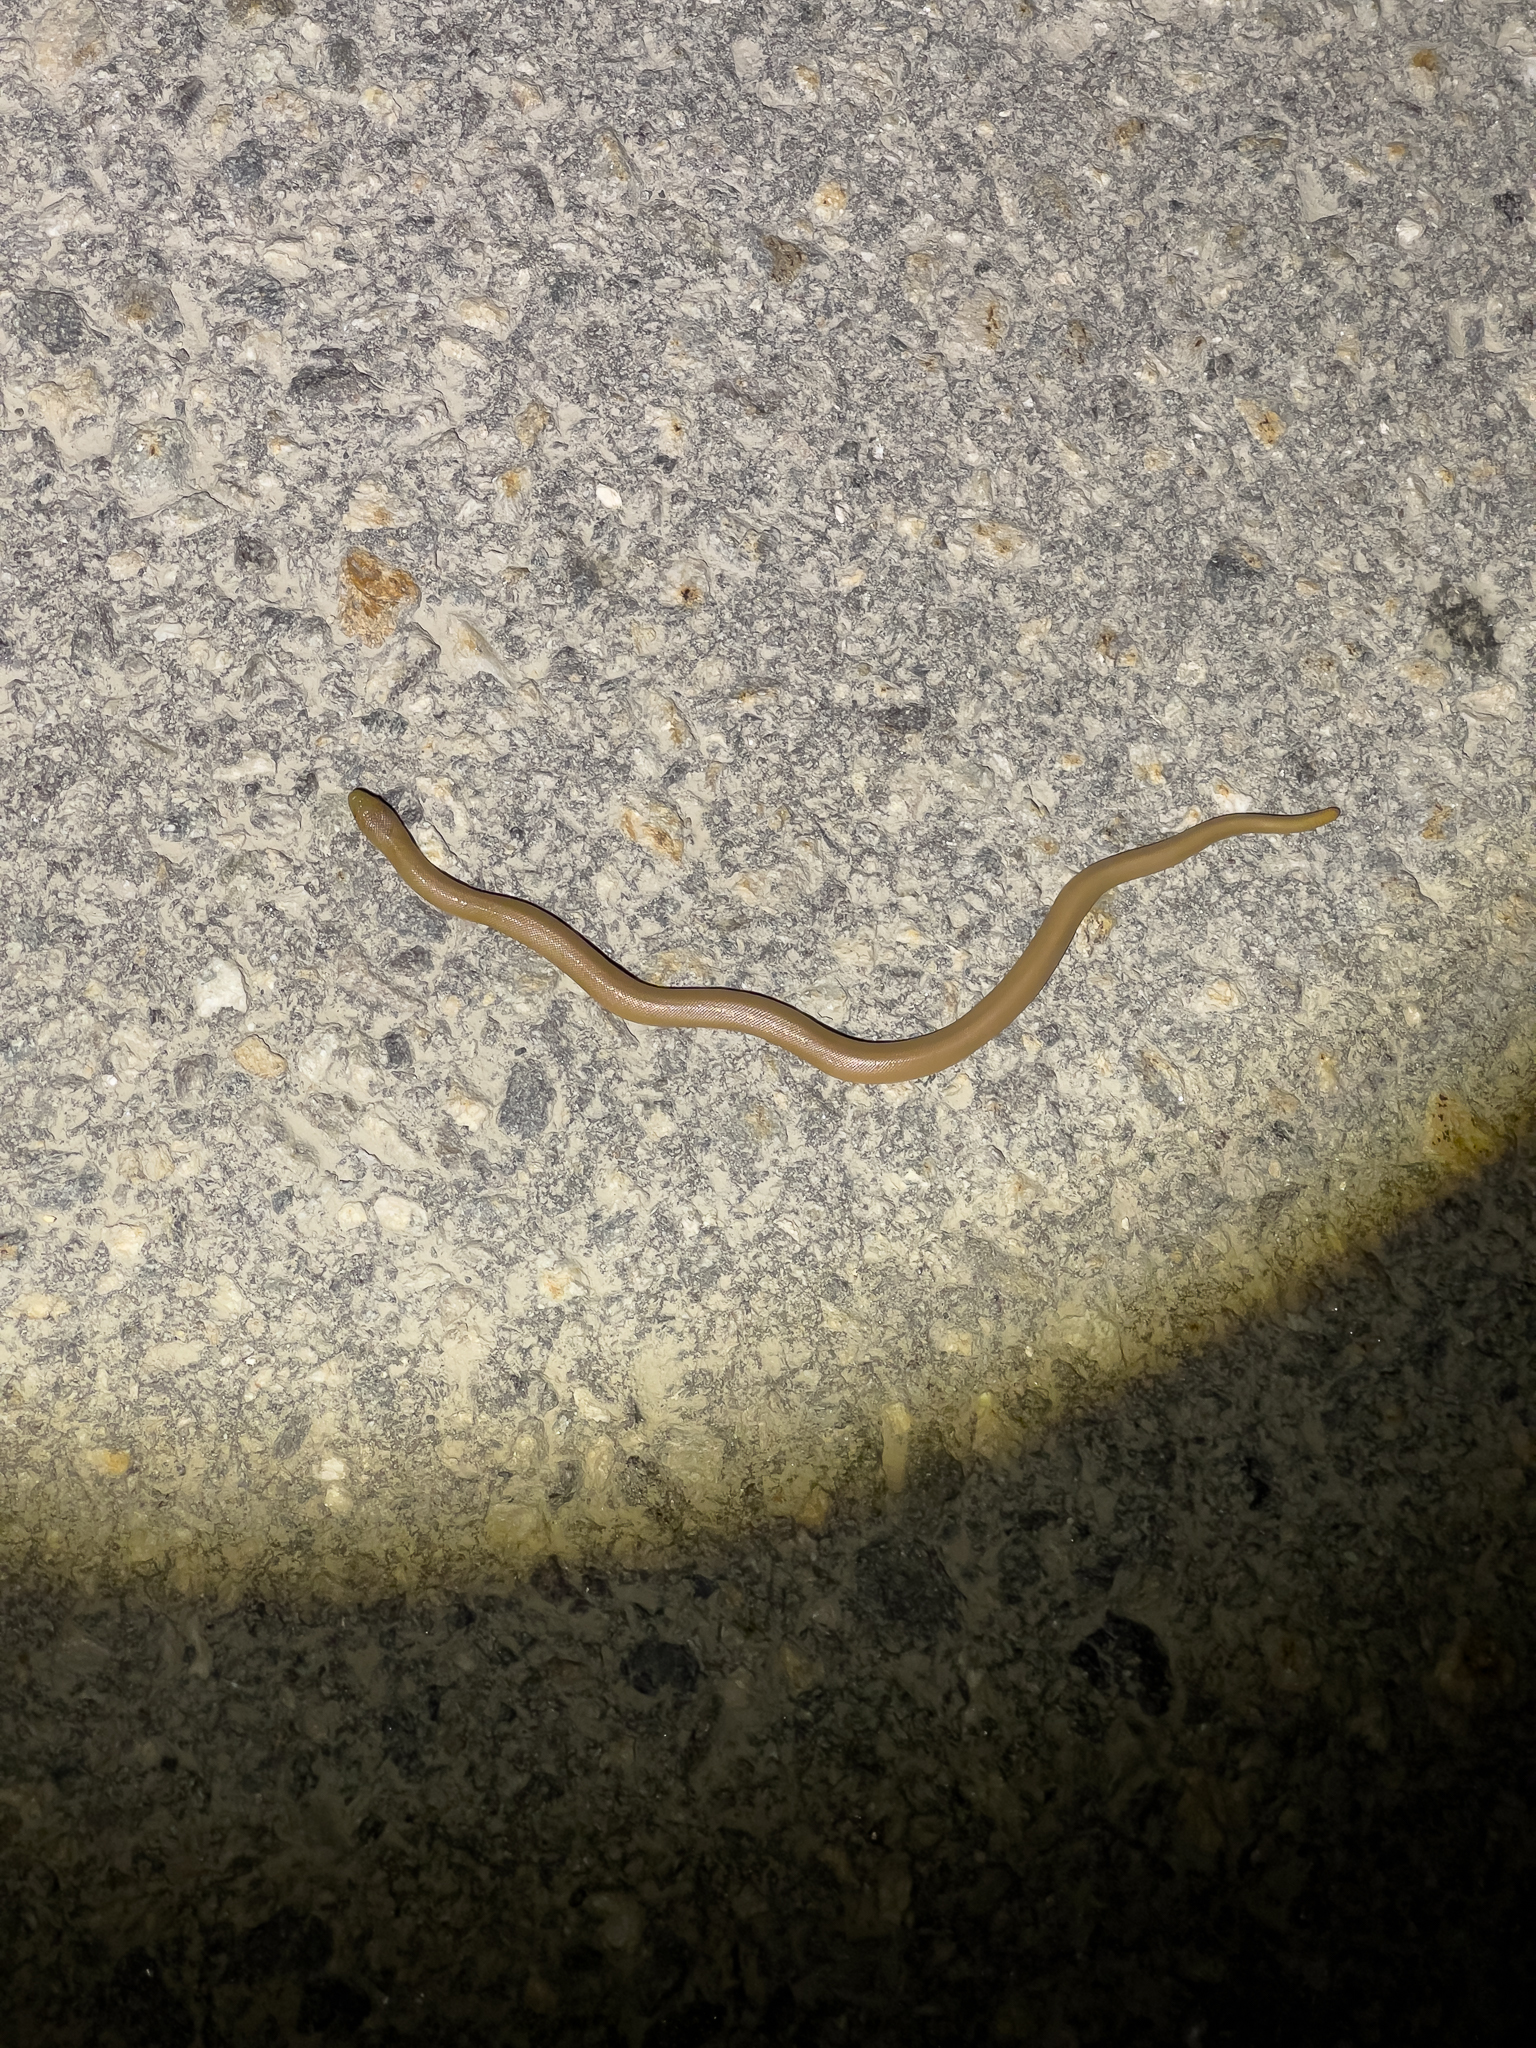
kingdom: Animalia
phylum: Chordata
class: Squamata
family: Boidae
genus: Charina
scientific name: Charina bottae
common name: Northern rubber boa
